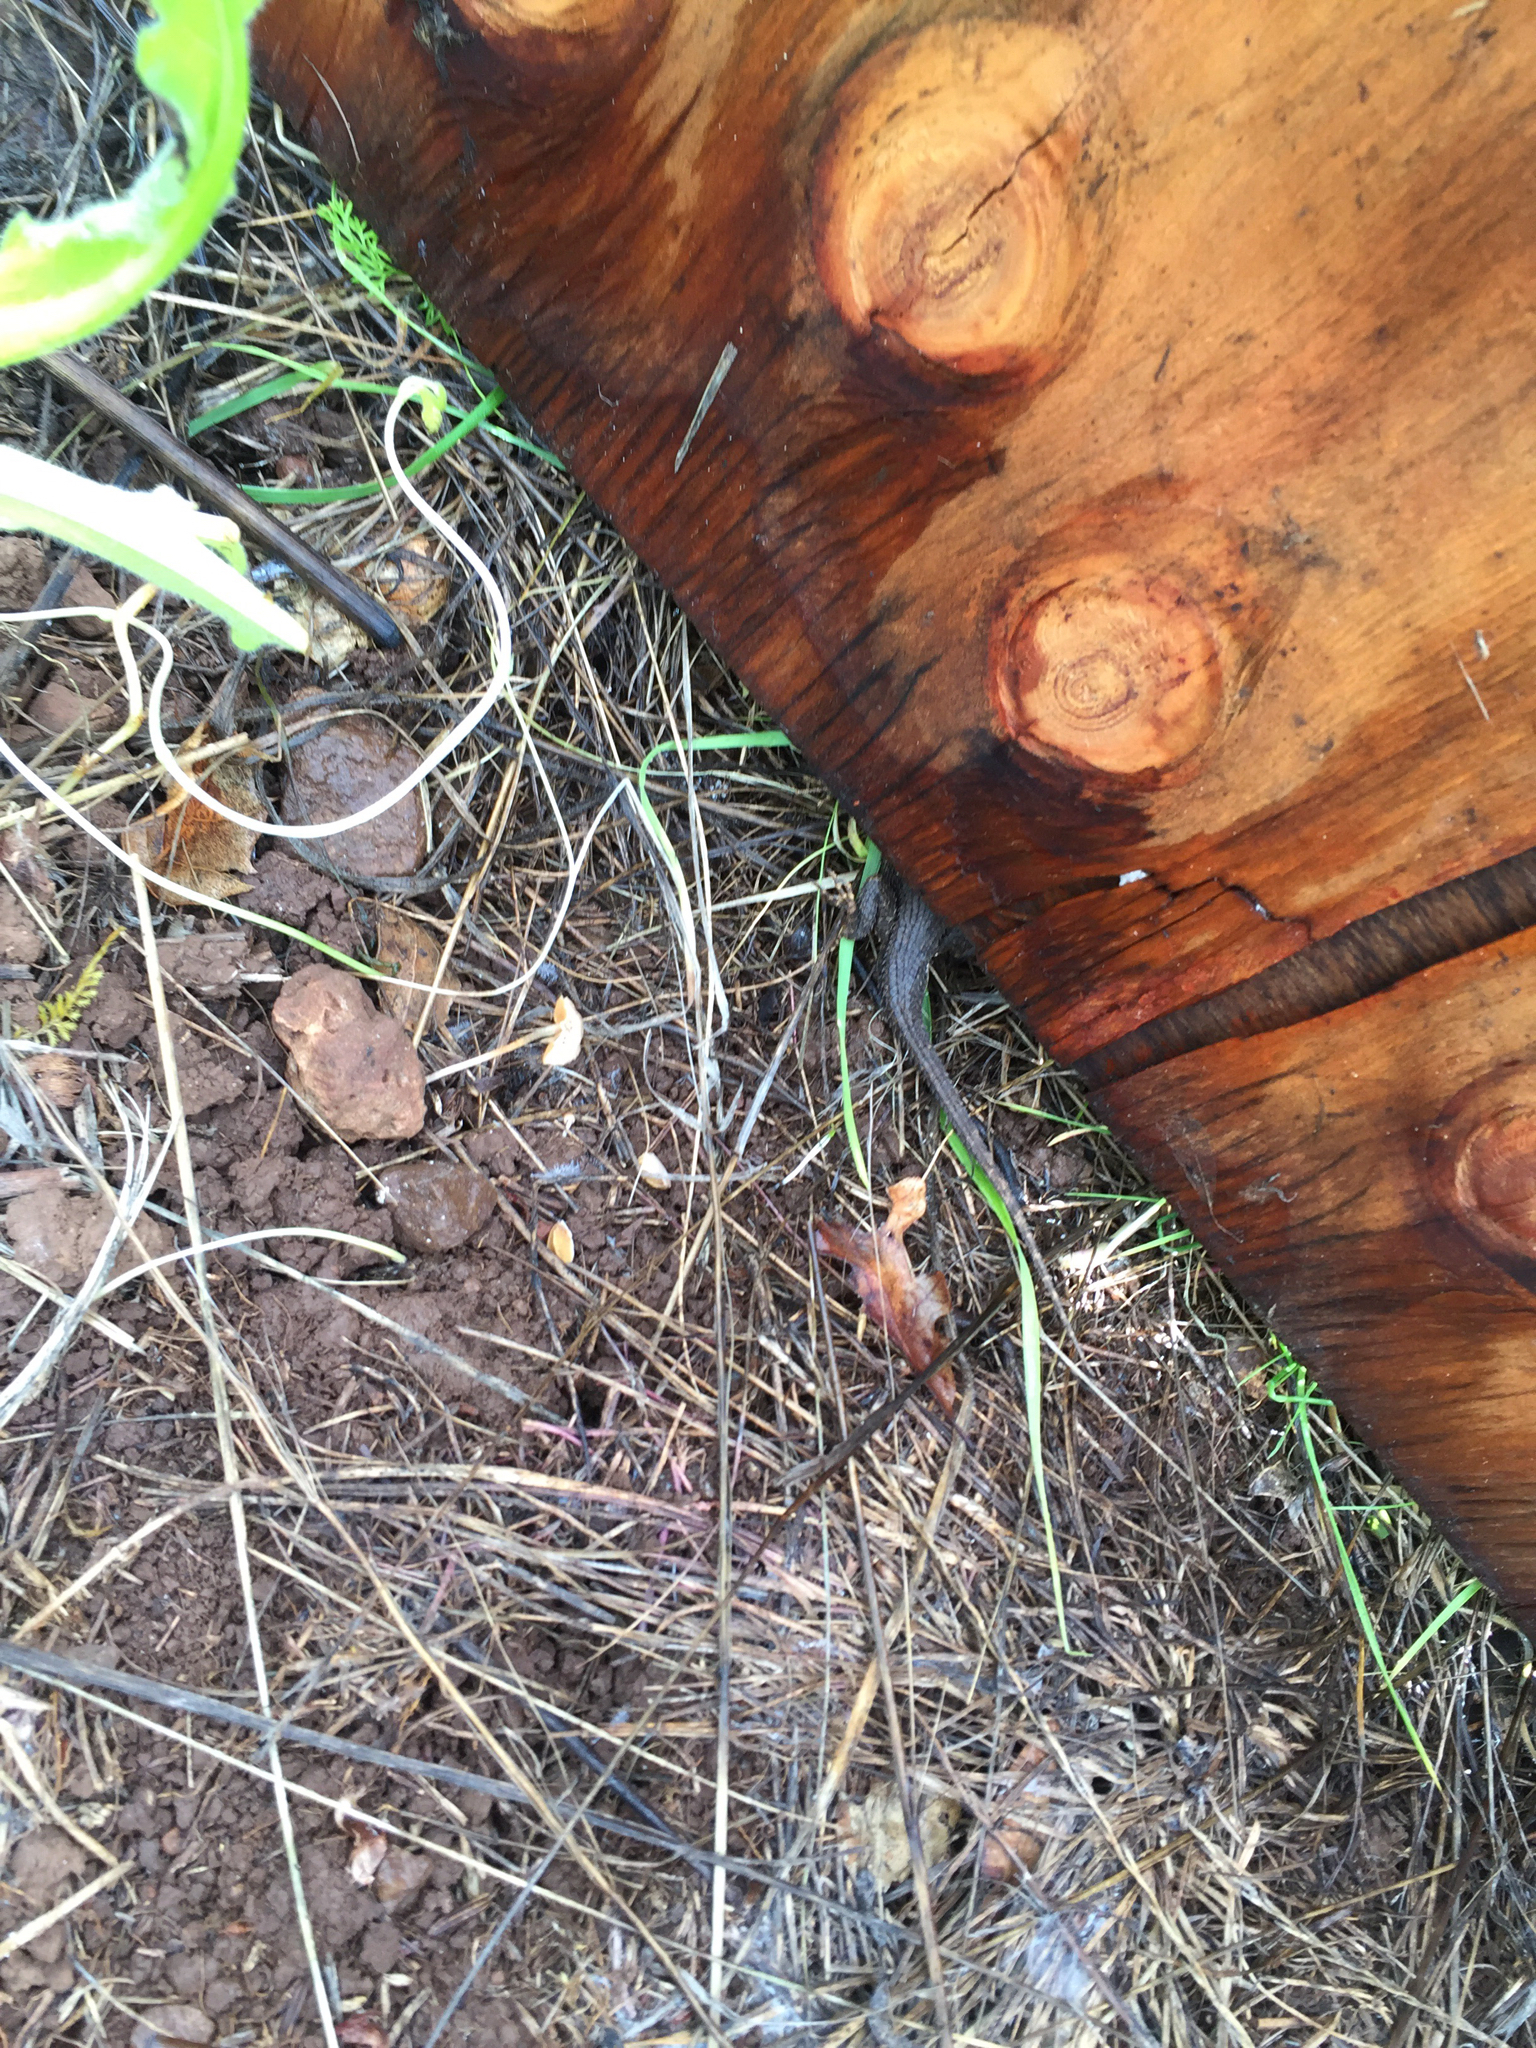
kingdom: Animalia
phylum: Chordata
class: Squamata
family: Phrynosomatidae
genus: Sceloporus
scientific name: Sceloporus occidentalis
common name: Western fence lizard
